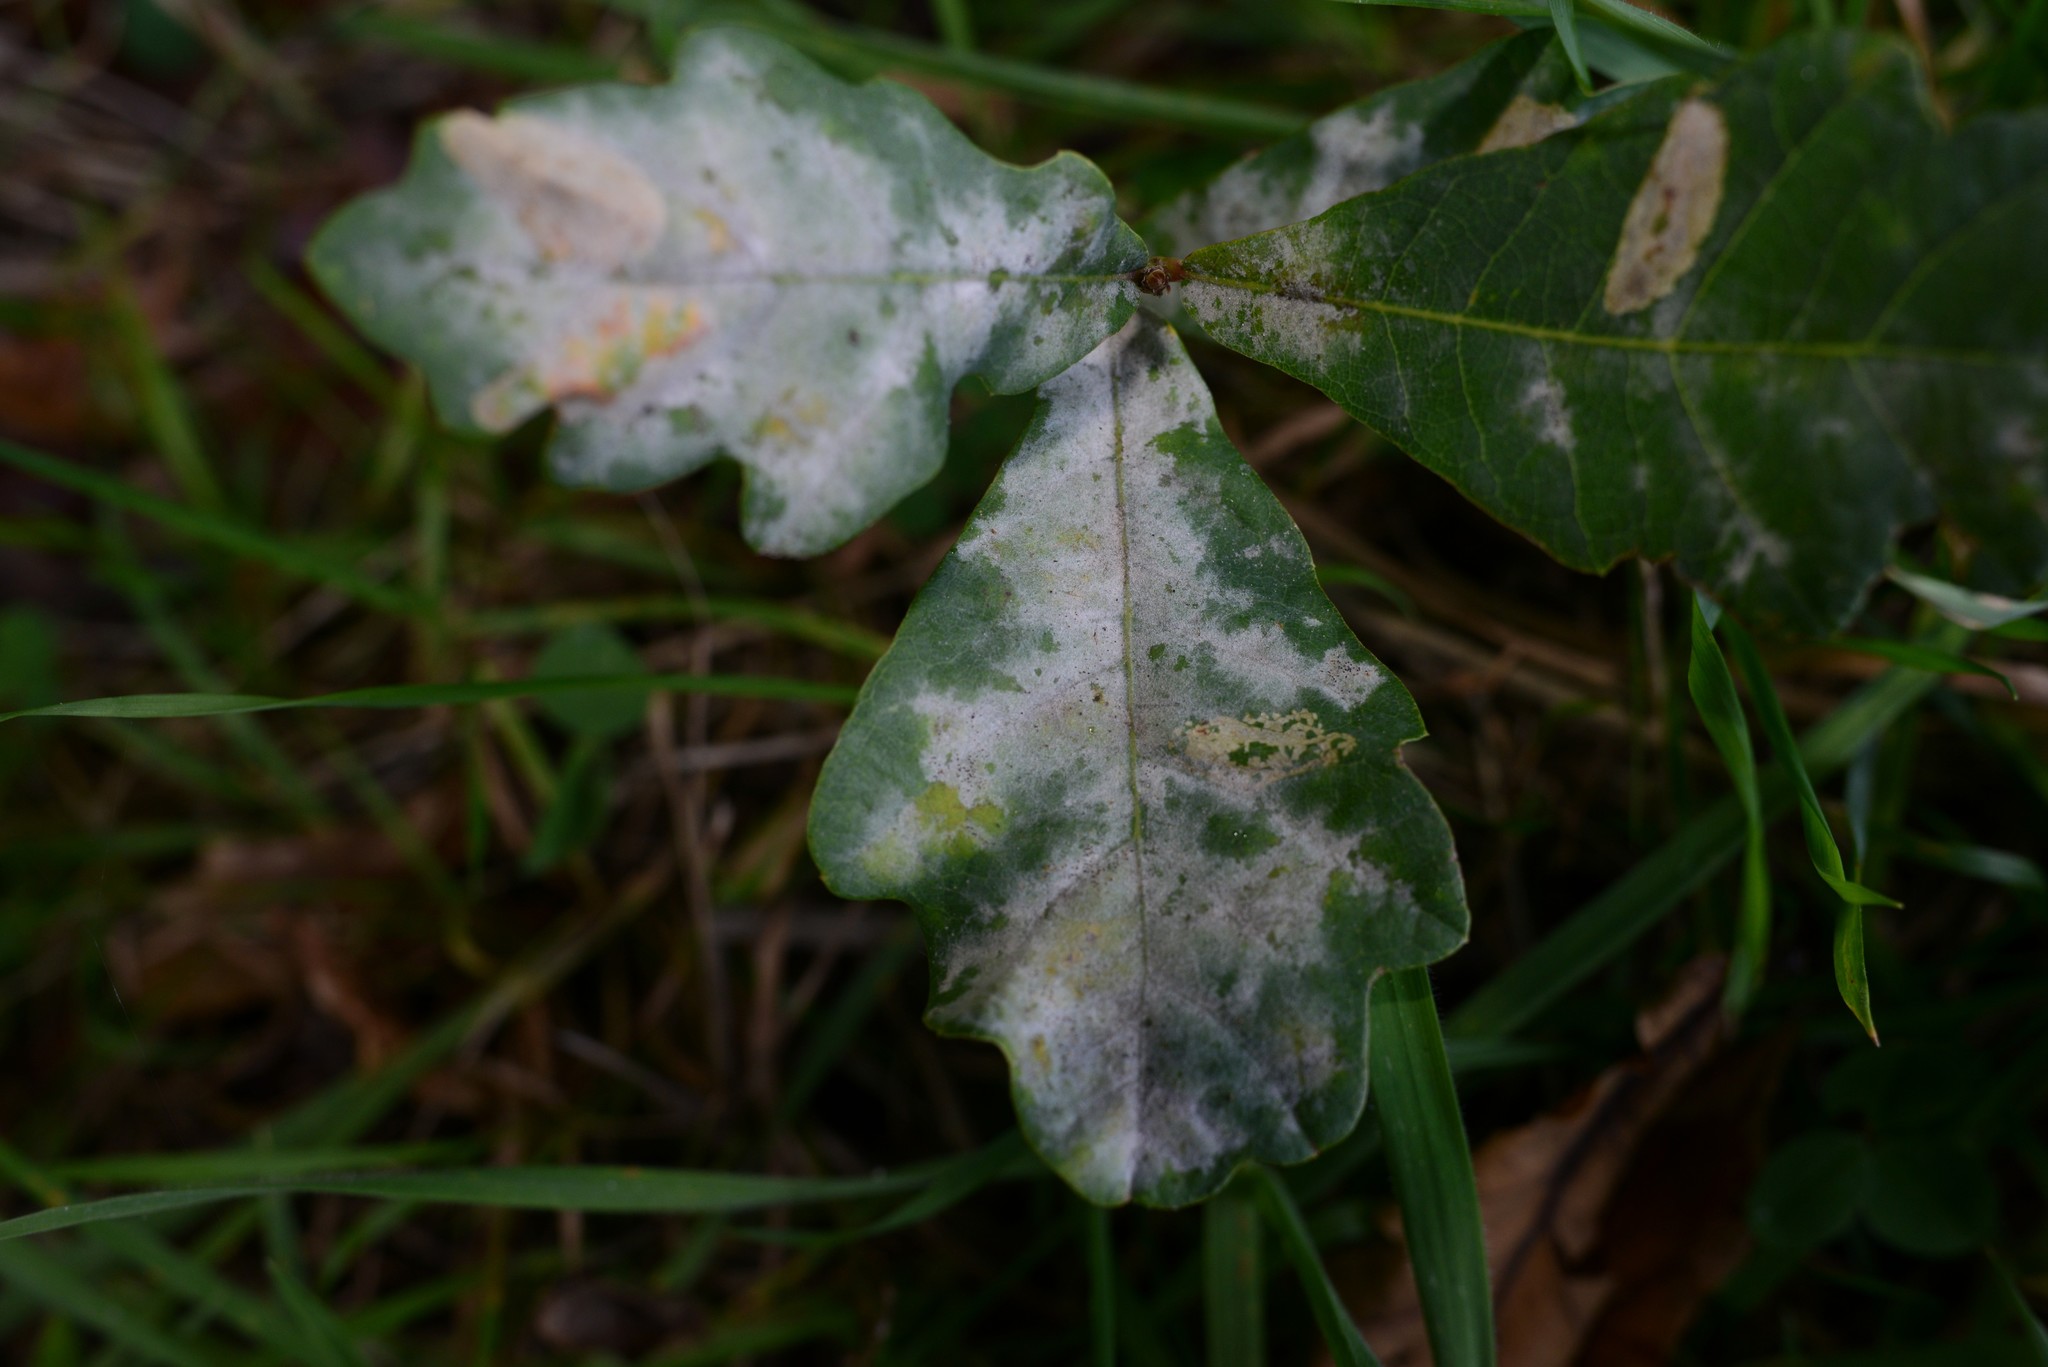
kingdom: Fungi
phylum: Ascomycota
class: Leotiomycetes
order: Helotiales
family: Erysiphaceae
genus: Erysiphe
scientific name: Erysiphe alphitoides
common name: Oak mildew
